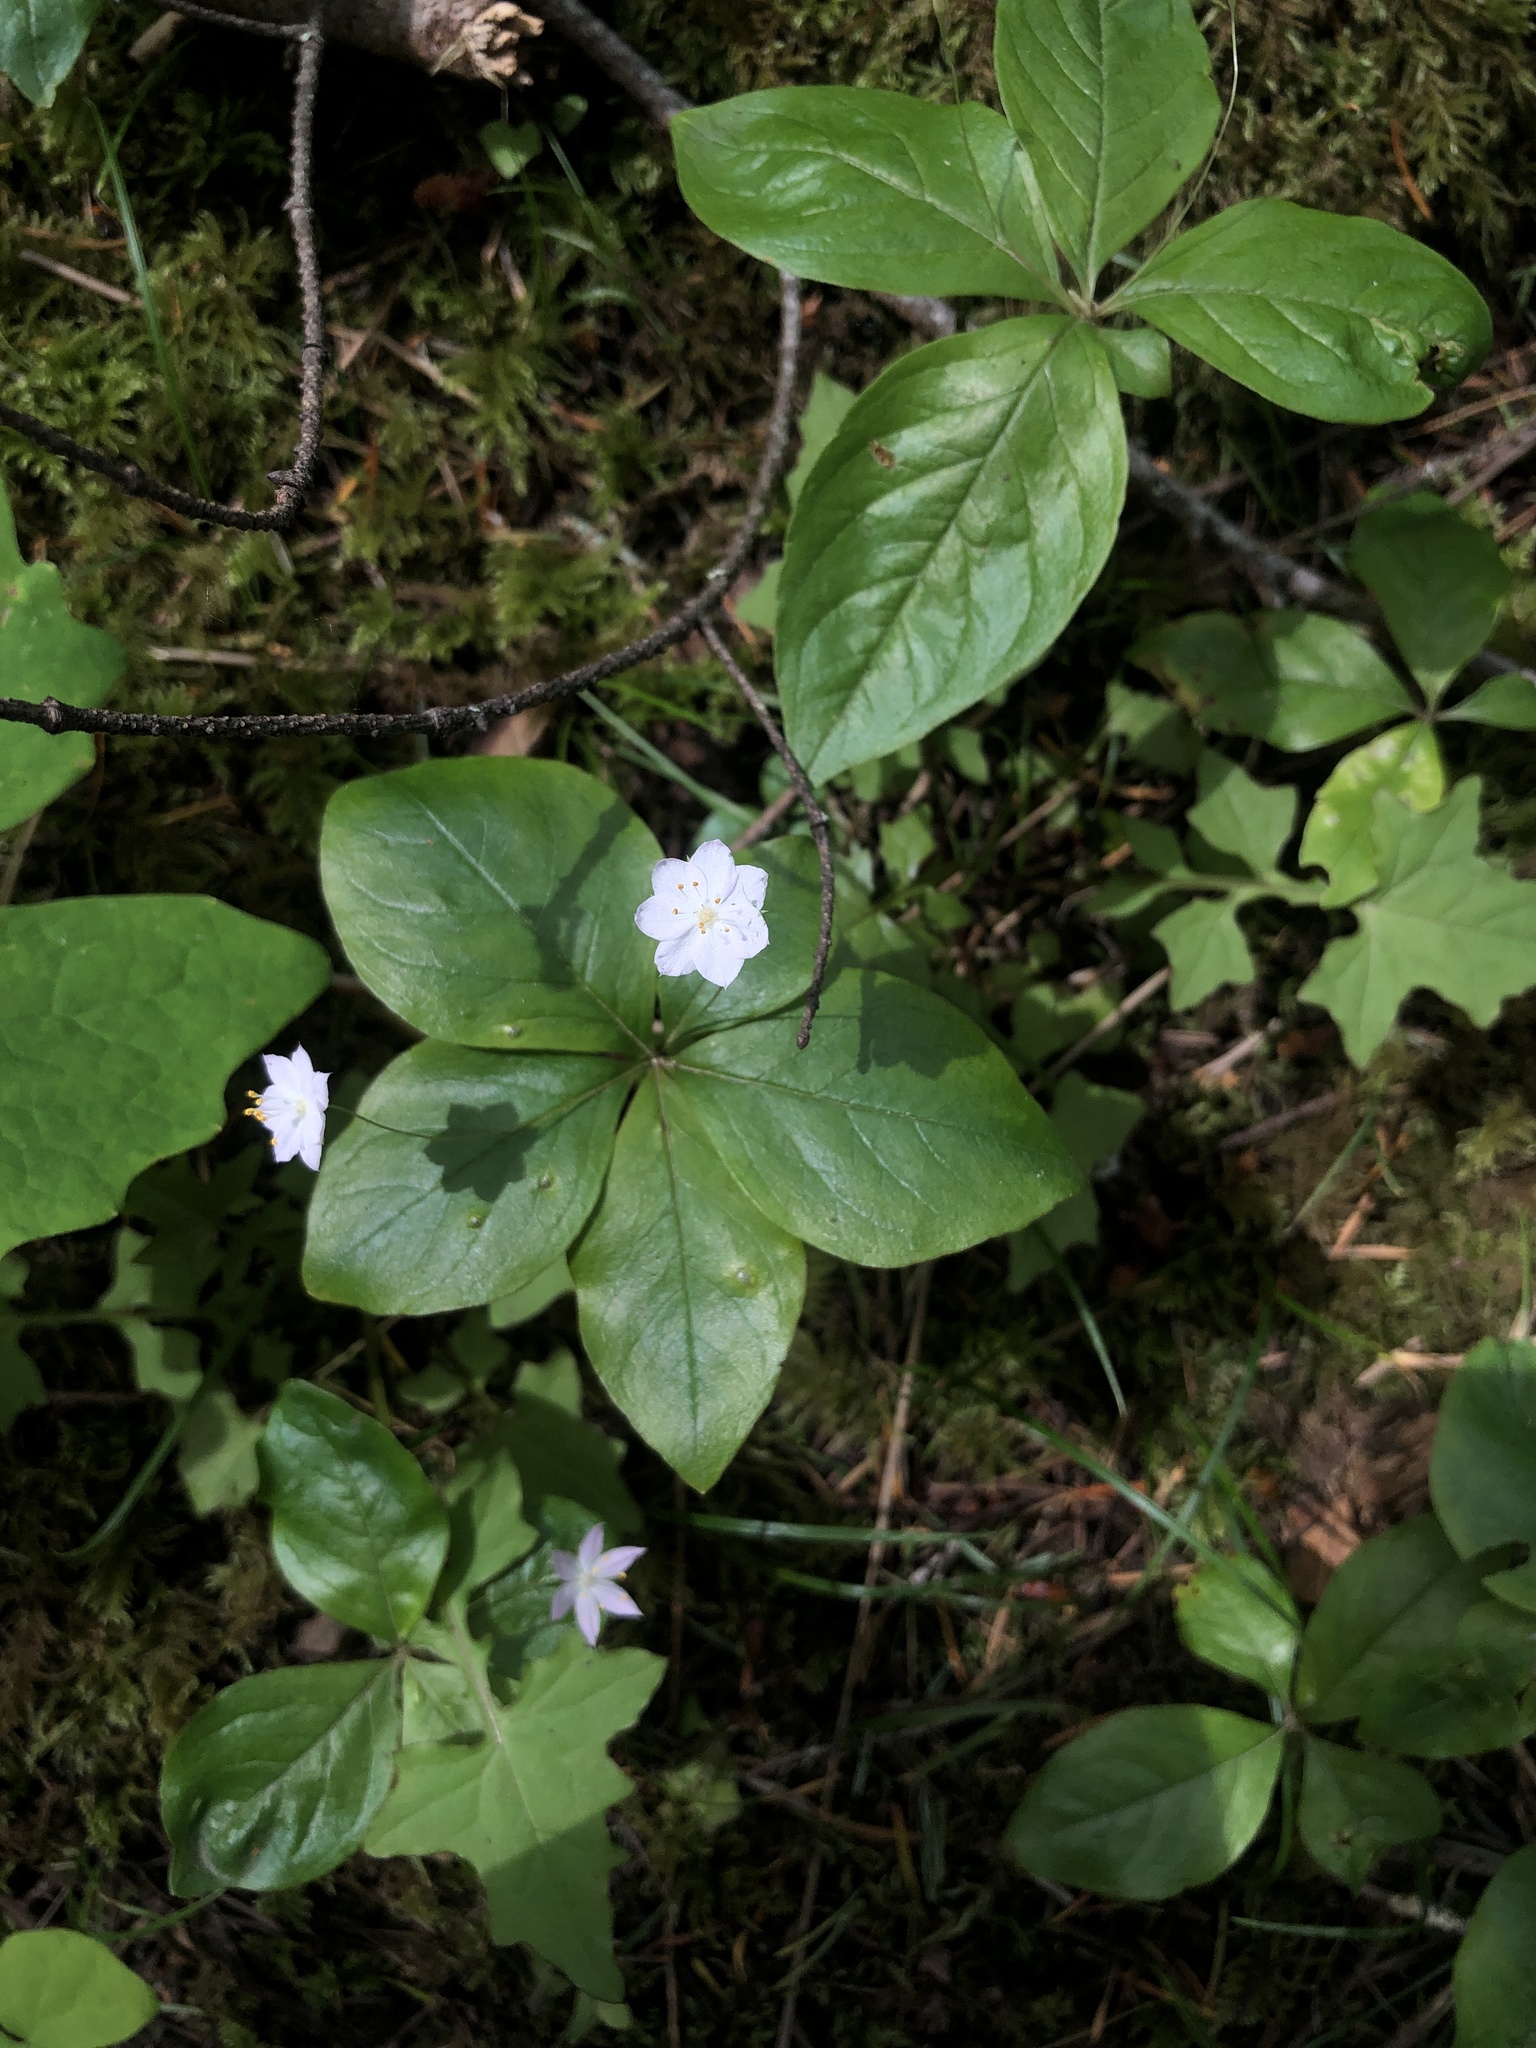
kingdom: Plantae
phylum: Tracheophyta
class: Magnoliopsida
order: Ericales
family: Primulaceae
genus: Lysimachia
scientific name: Lysimachia latifolia
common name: Pacific starflower
